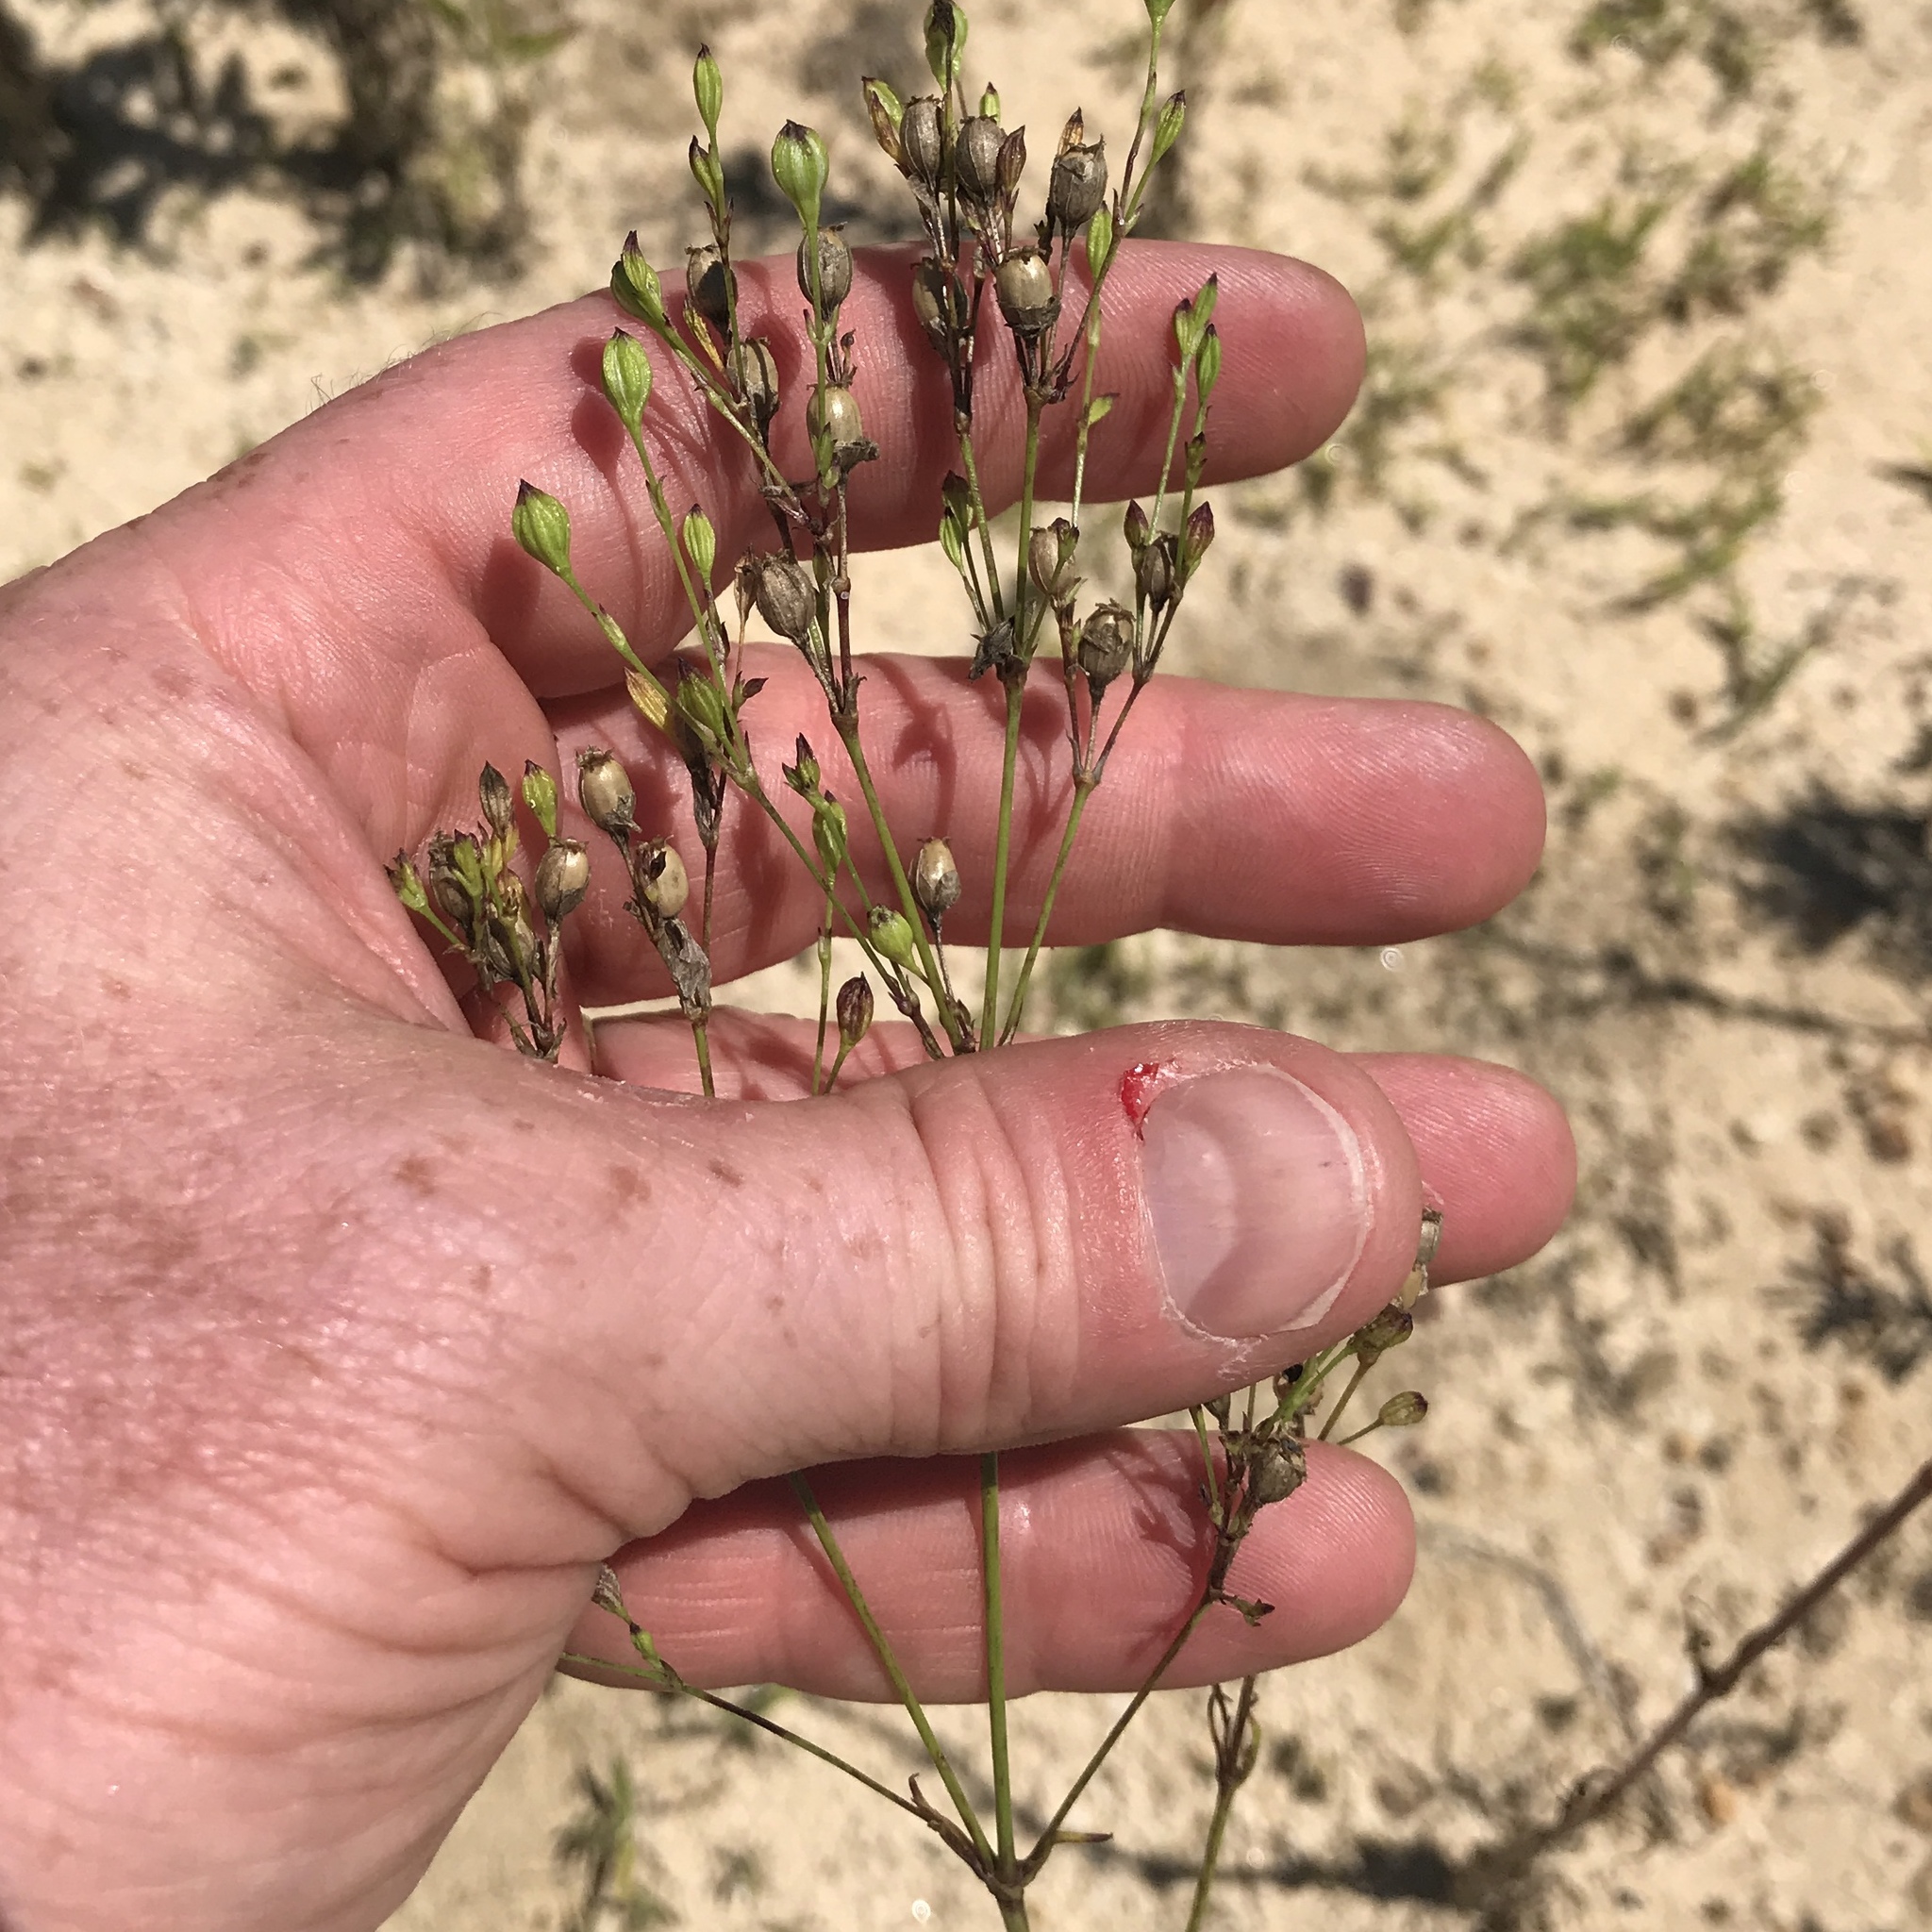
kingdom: Plantae
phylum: Tracheophyta
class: Magnoliopsida
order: Caryophyllales
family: Caryophyllaceae
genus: Silene
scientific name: Silene antirrhina
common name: Sleepy catchfly
